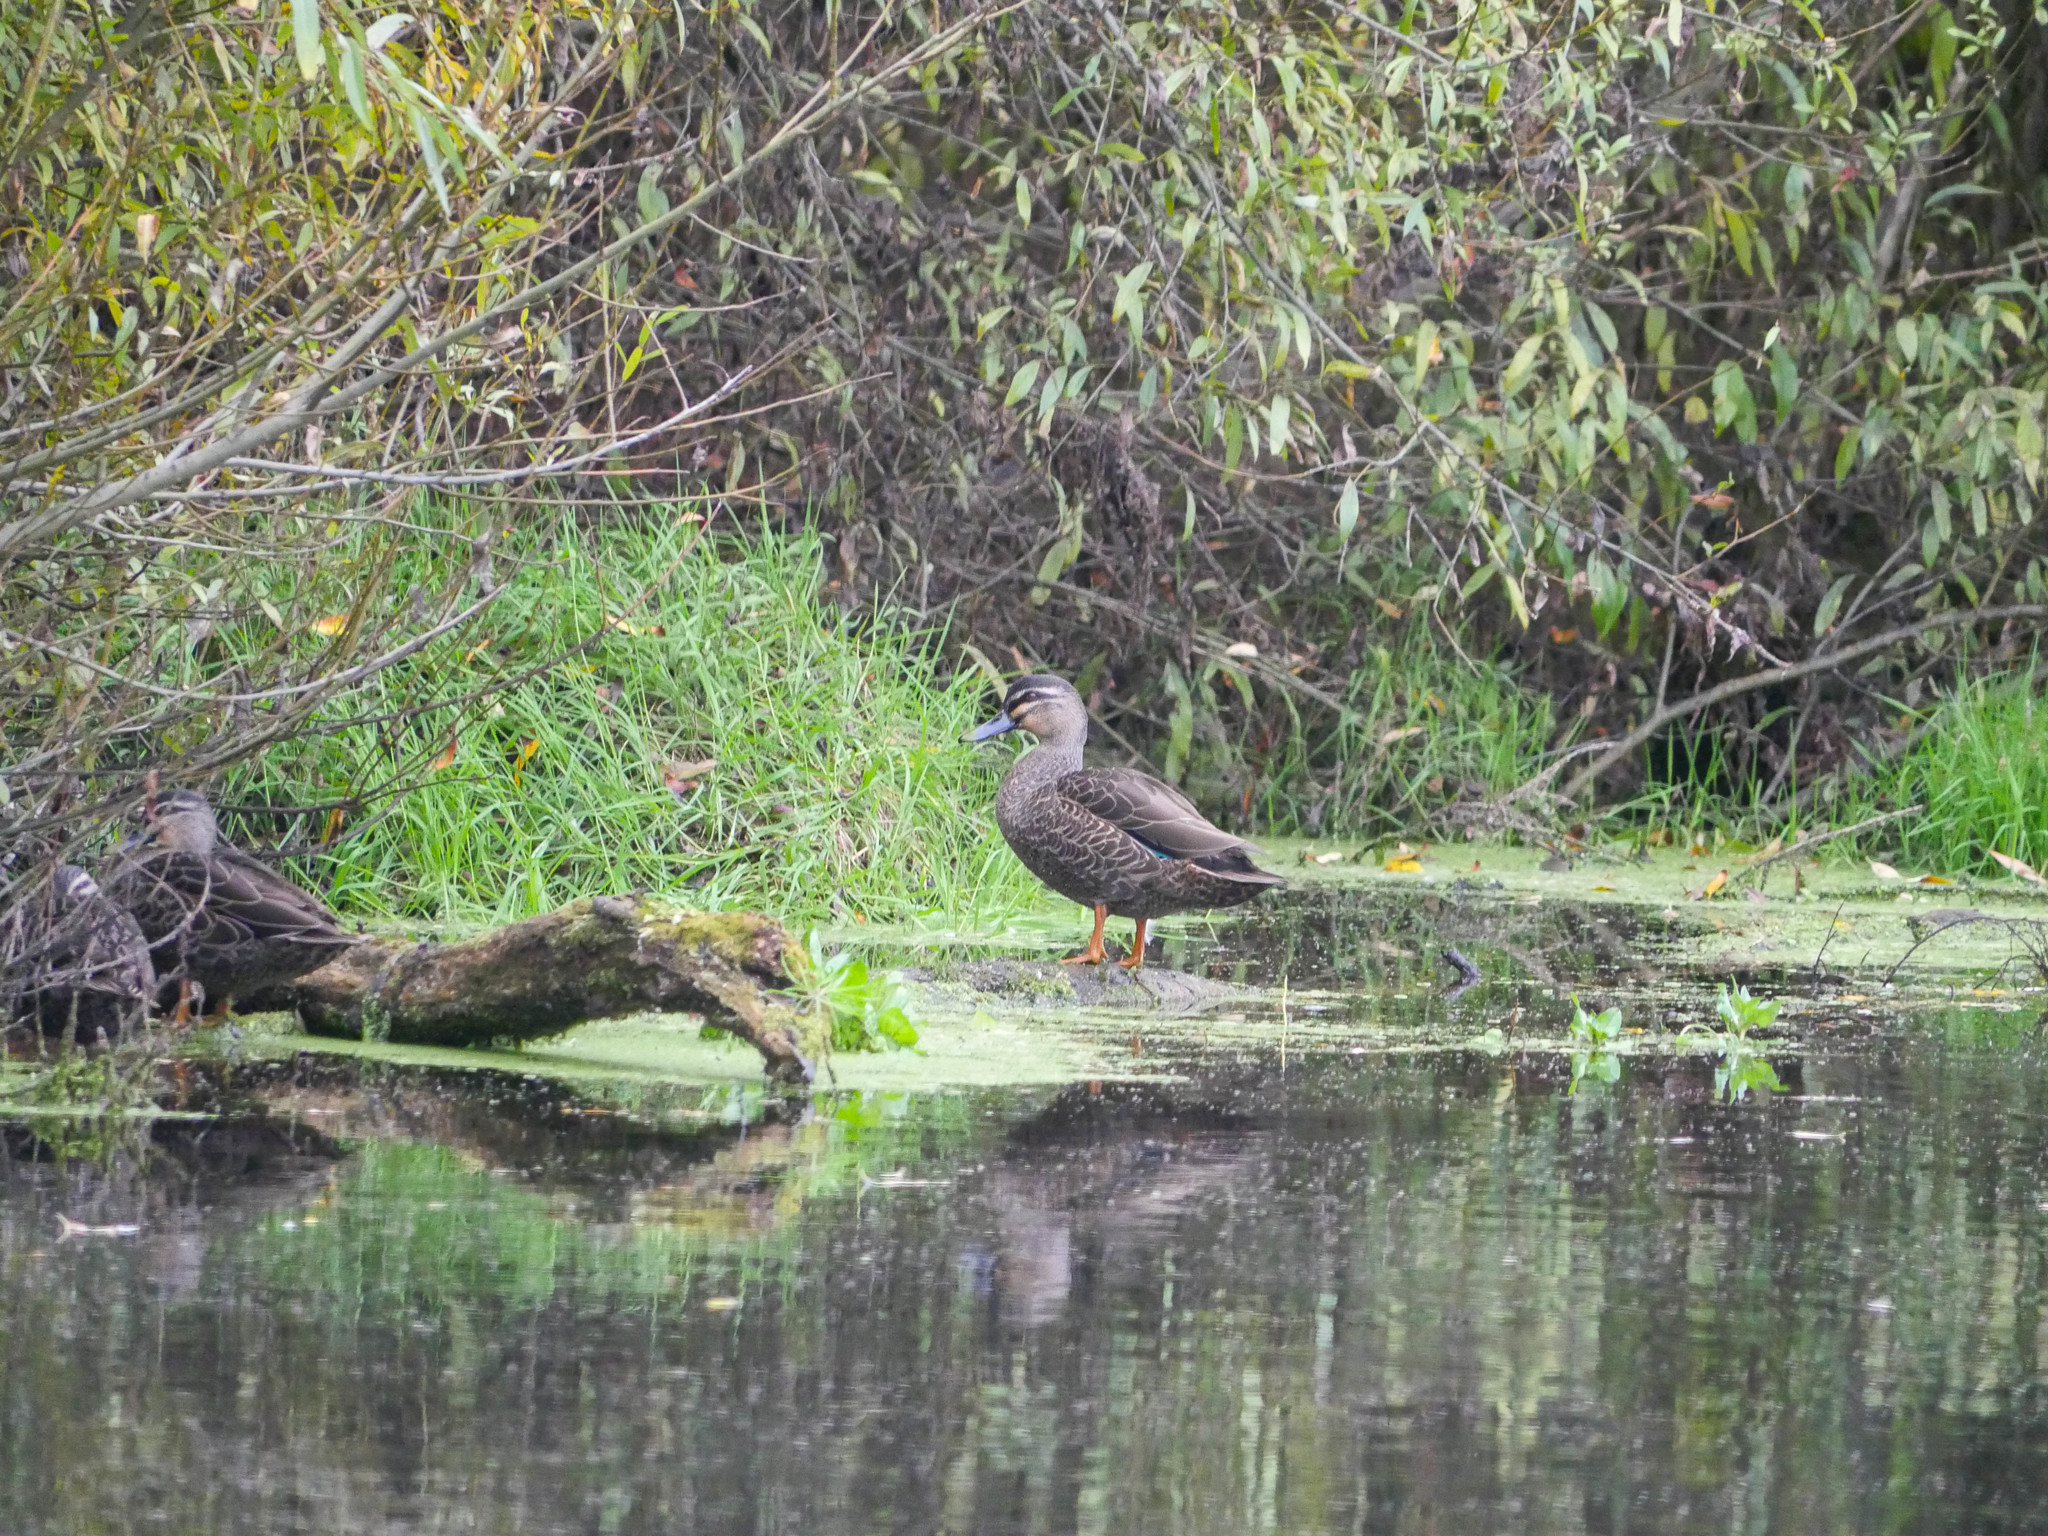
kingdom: Animalia
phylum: Chordata
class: Aves
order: Anseriformes
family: Anatidae
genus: Anas
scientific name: Anas
